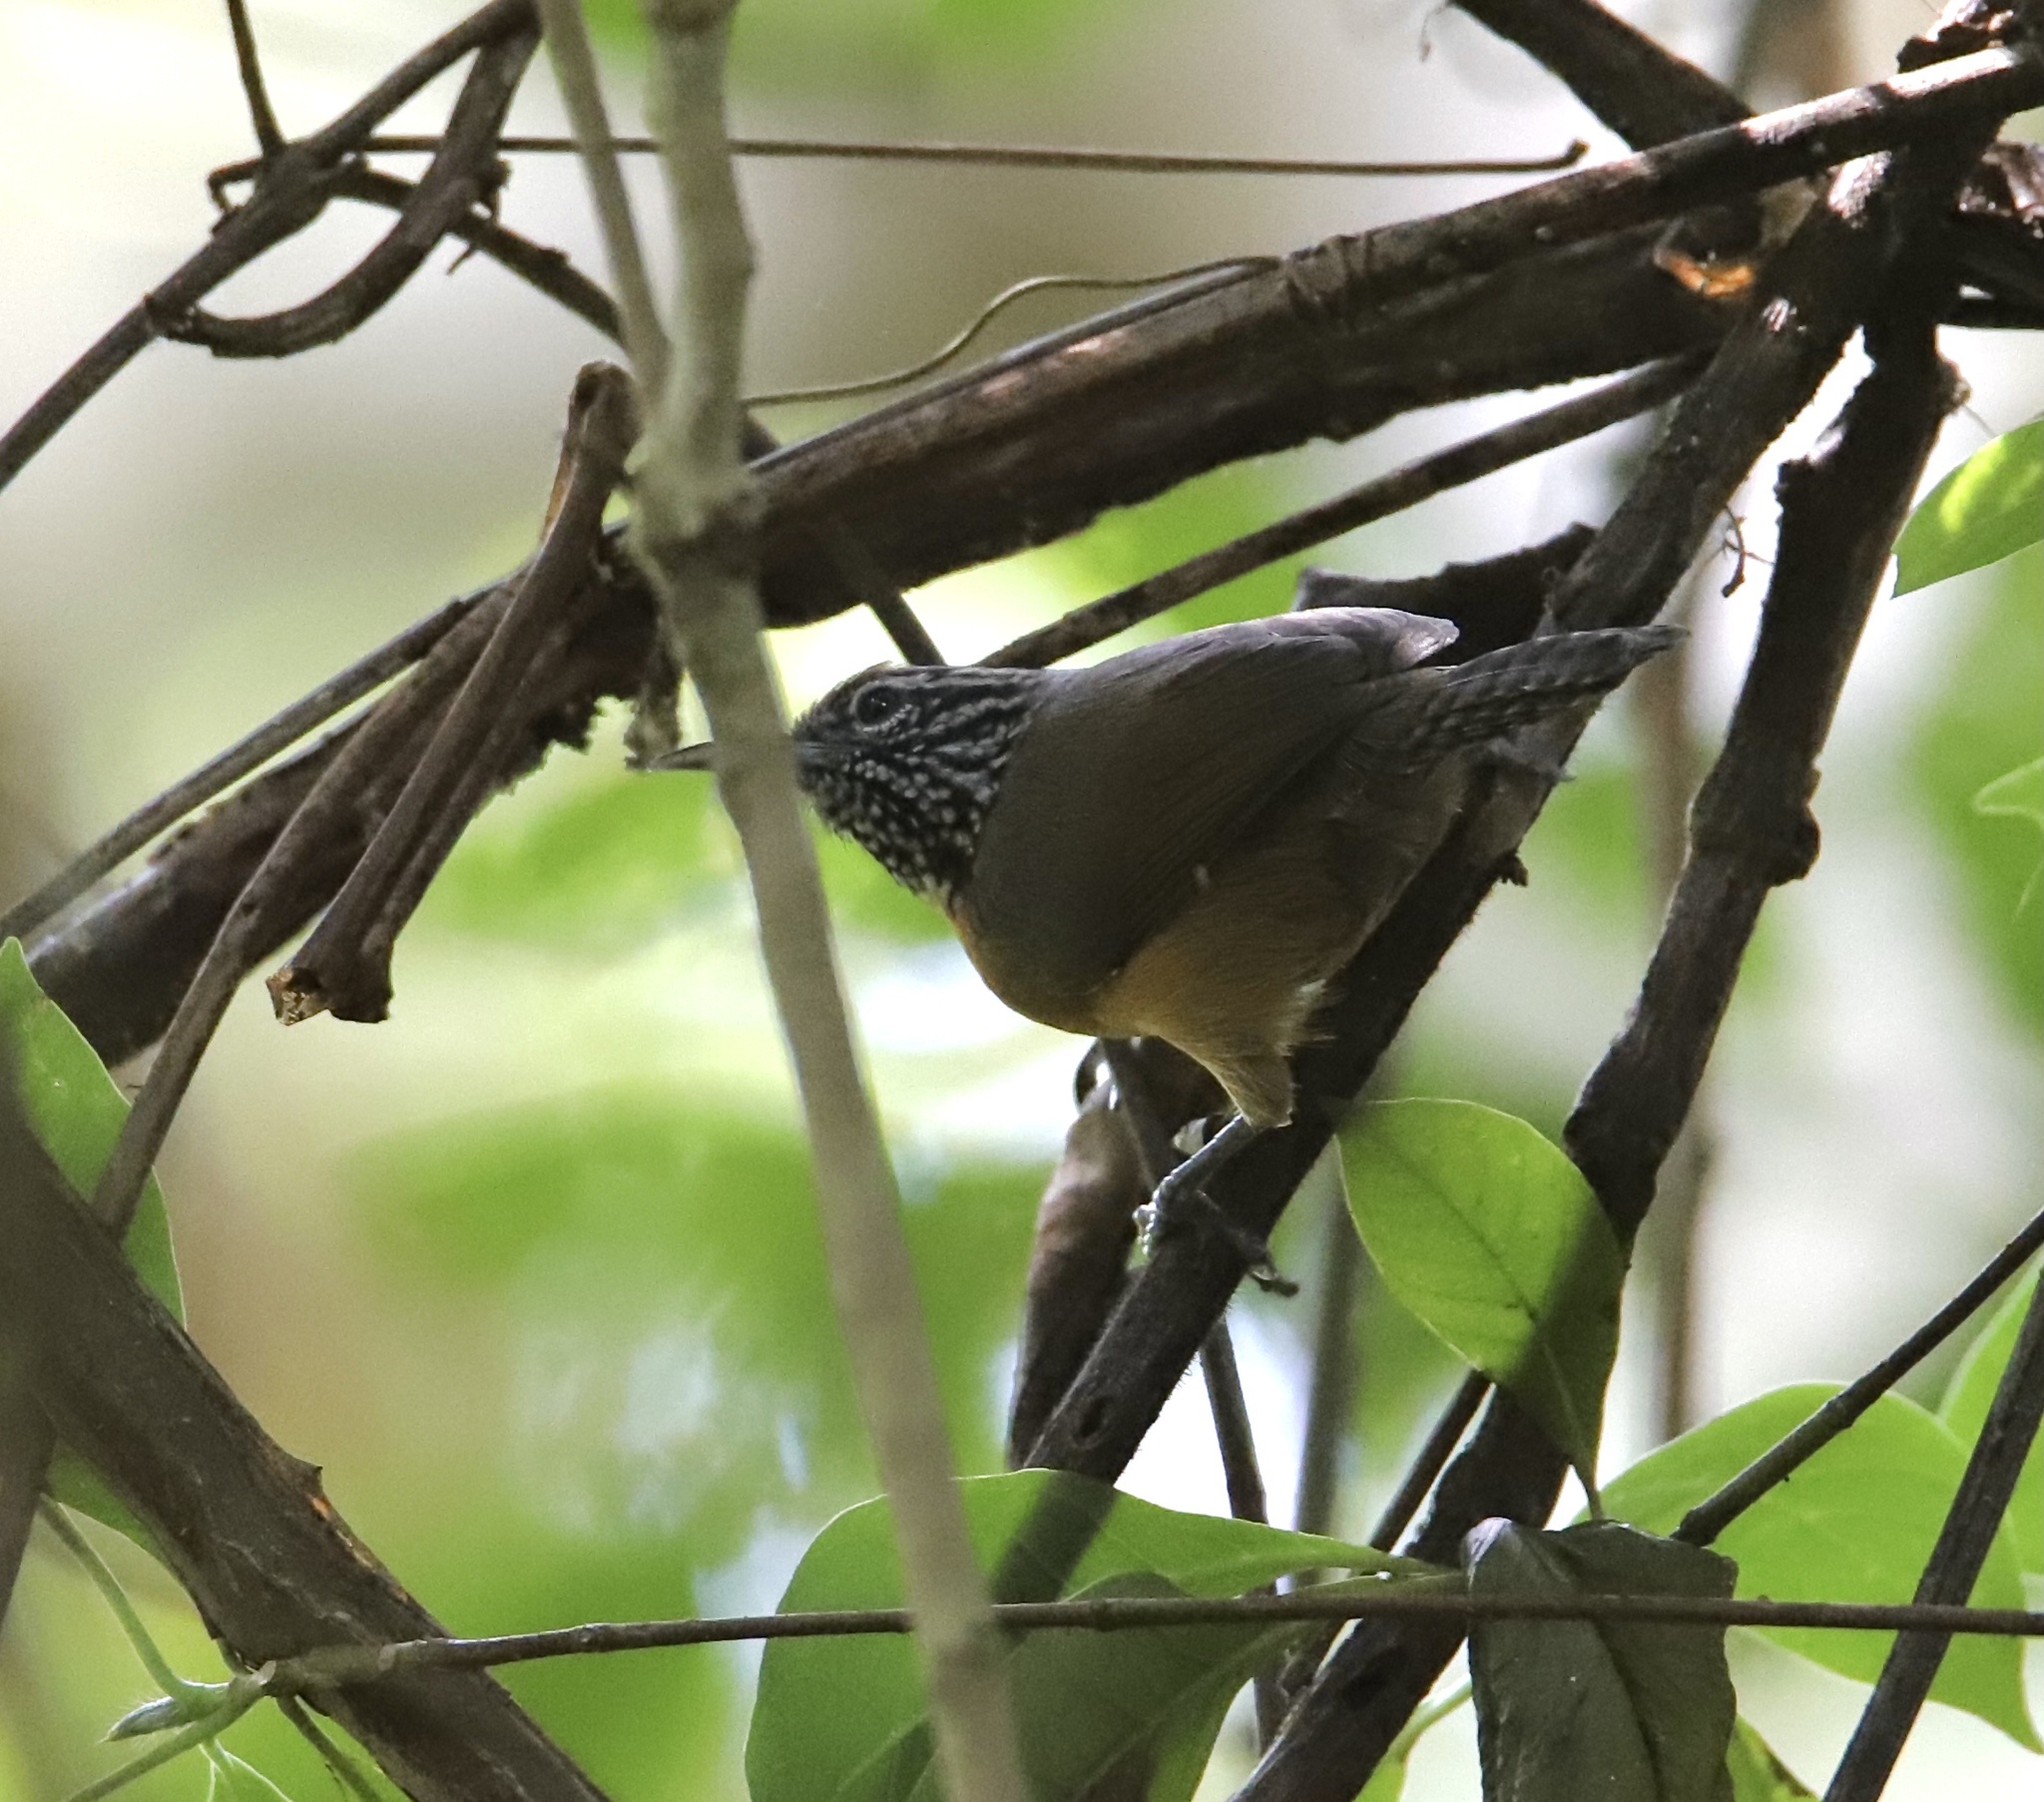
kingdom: Animalia
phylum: Chordata
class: Aves
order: Passeriformes
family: Troglodytidae
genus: Pheugopedius
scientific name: Pheugopedius rutilus
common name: Rufous-breasted wren
